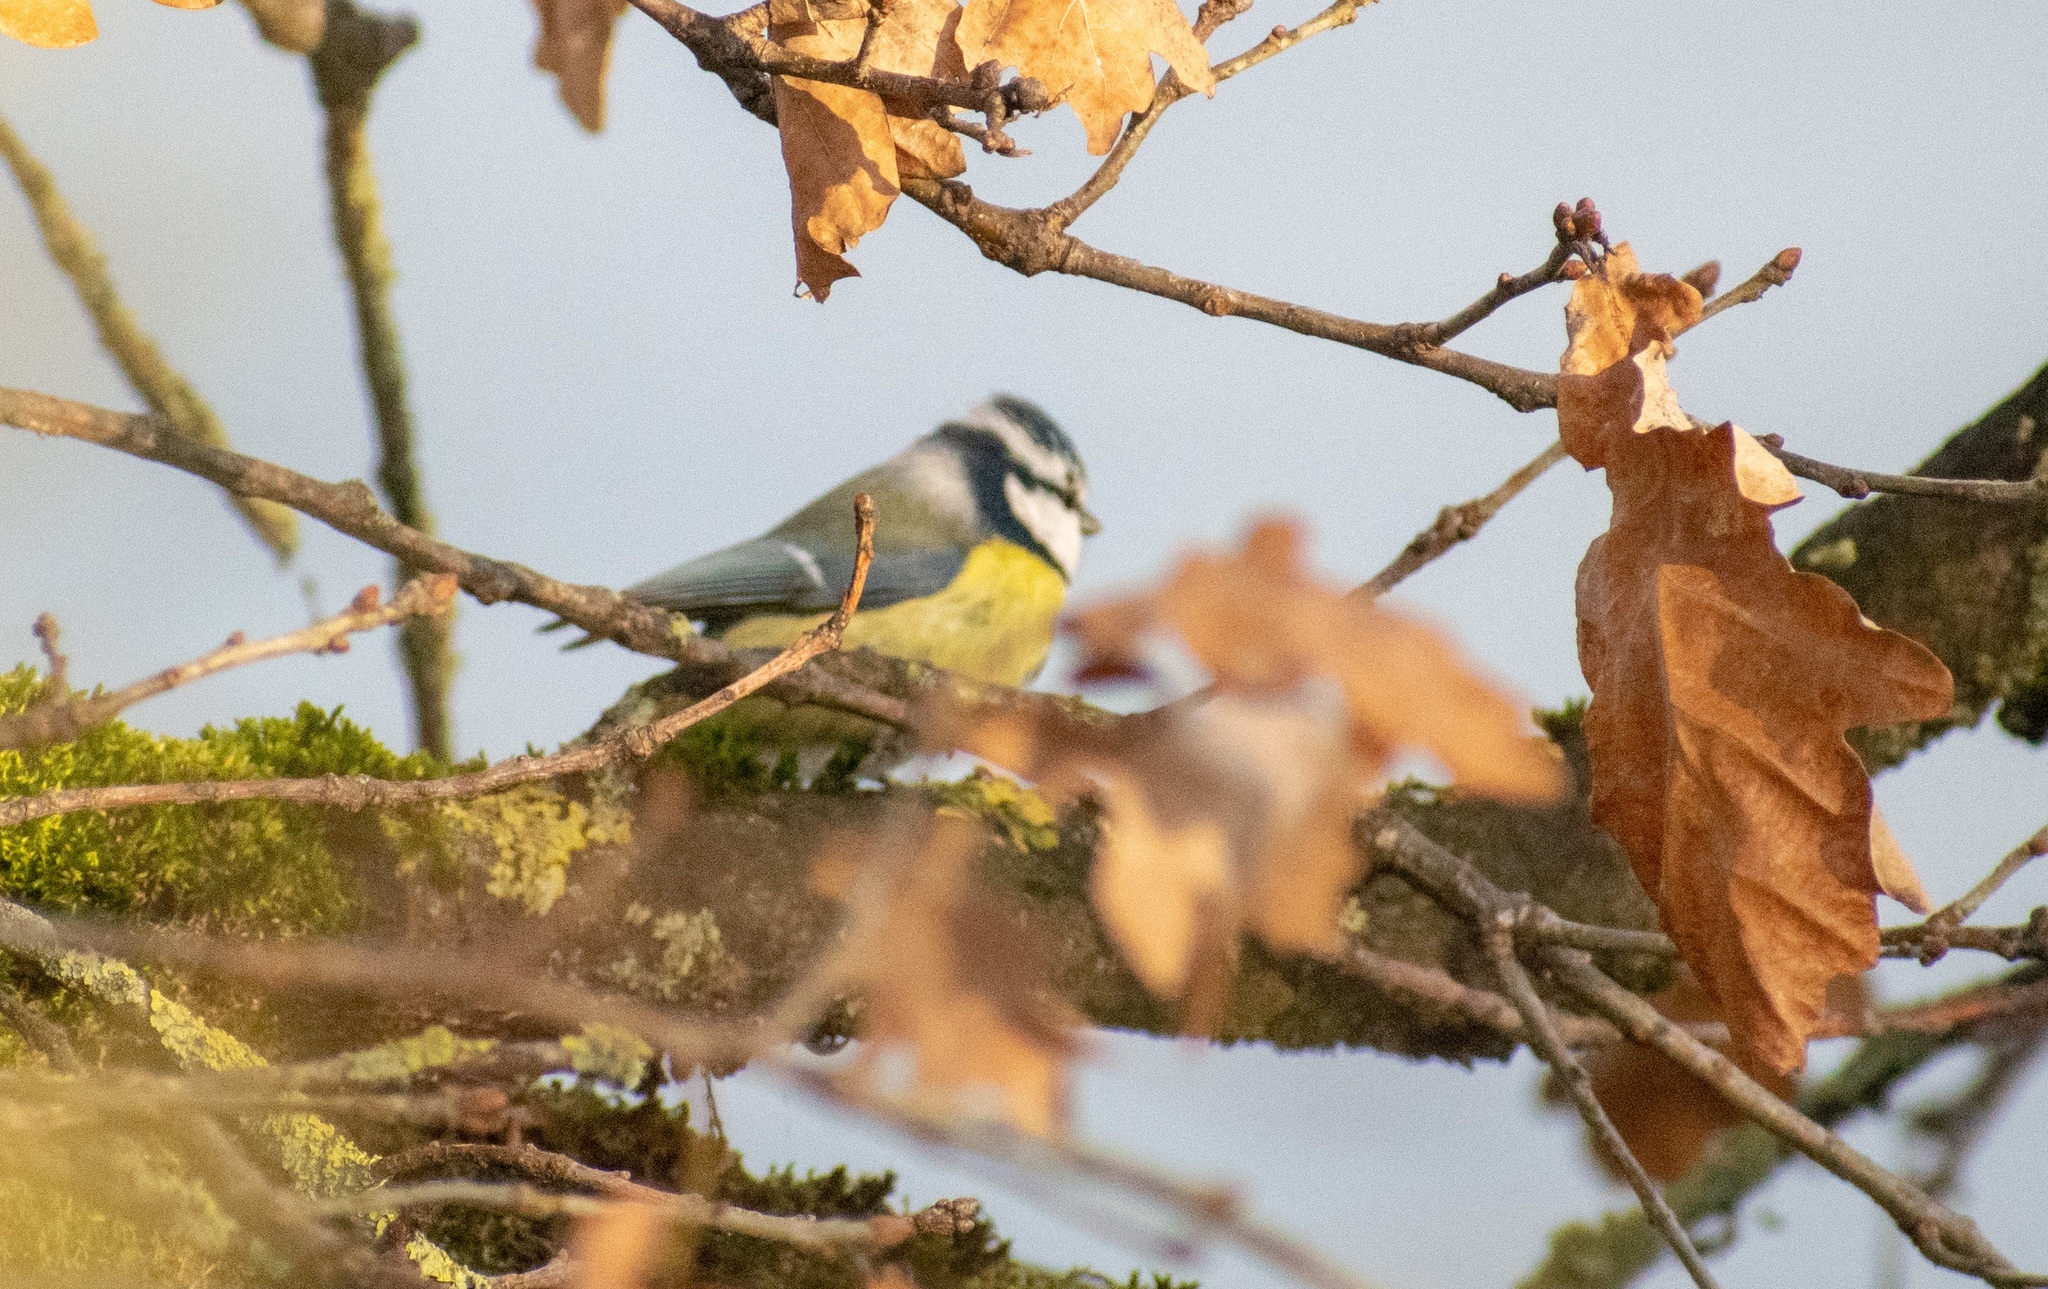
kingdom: Animalia
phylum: Chordata
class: Aves
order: Passeriformes
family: Paridae
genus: Cyanistes
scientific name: Cyanistes caeruleus
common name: Eurasian blue tit
